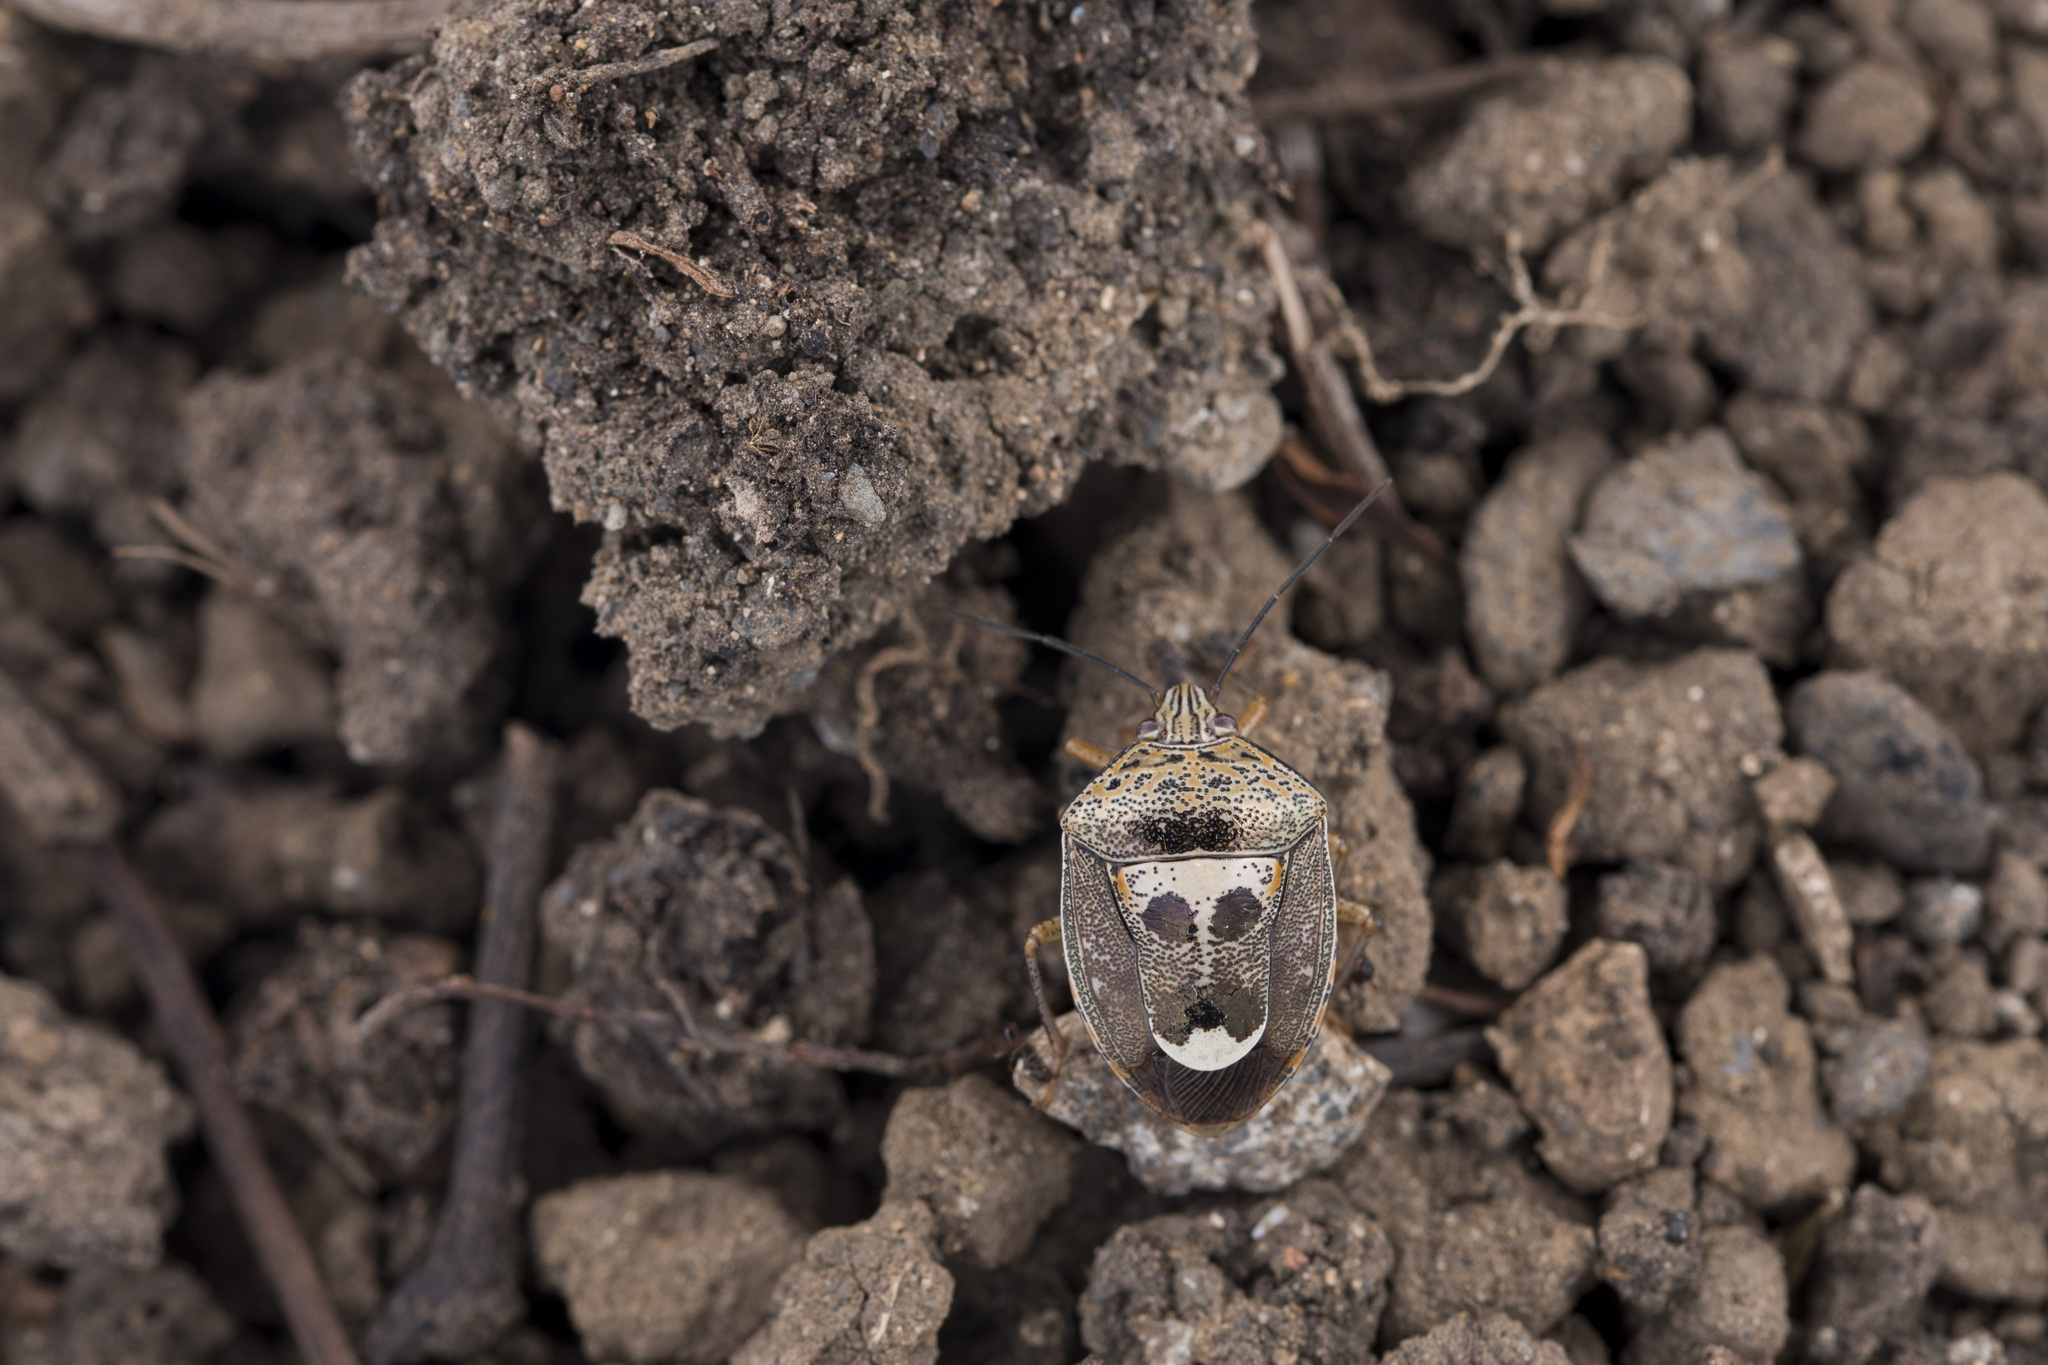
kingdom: Animalia
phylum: Arthropoda
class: Insecta
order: Hemiptera
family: Pentatomidae
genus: Axiagastus
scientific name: Axiagastus rosmarus
